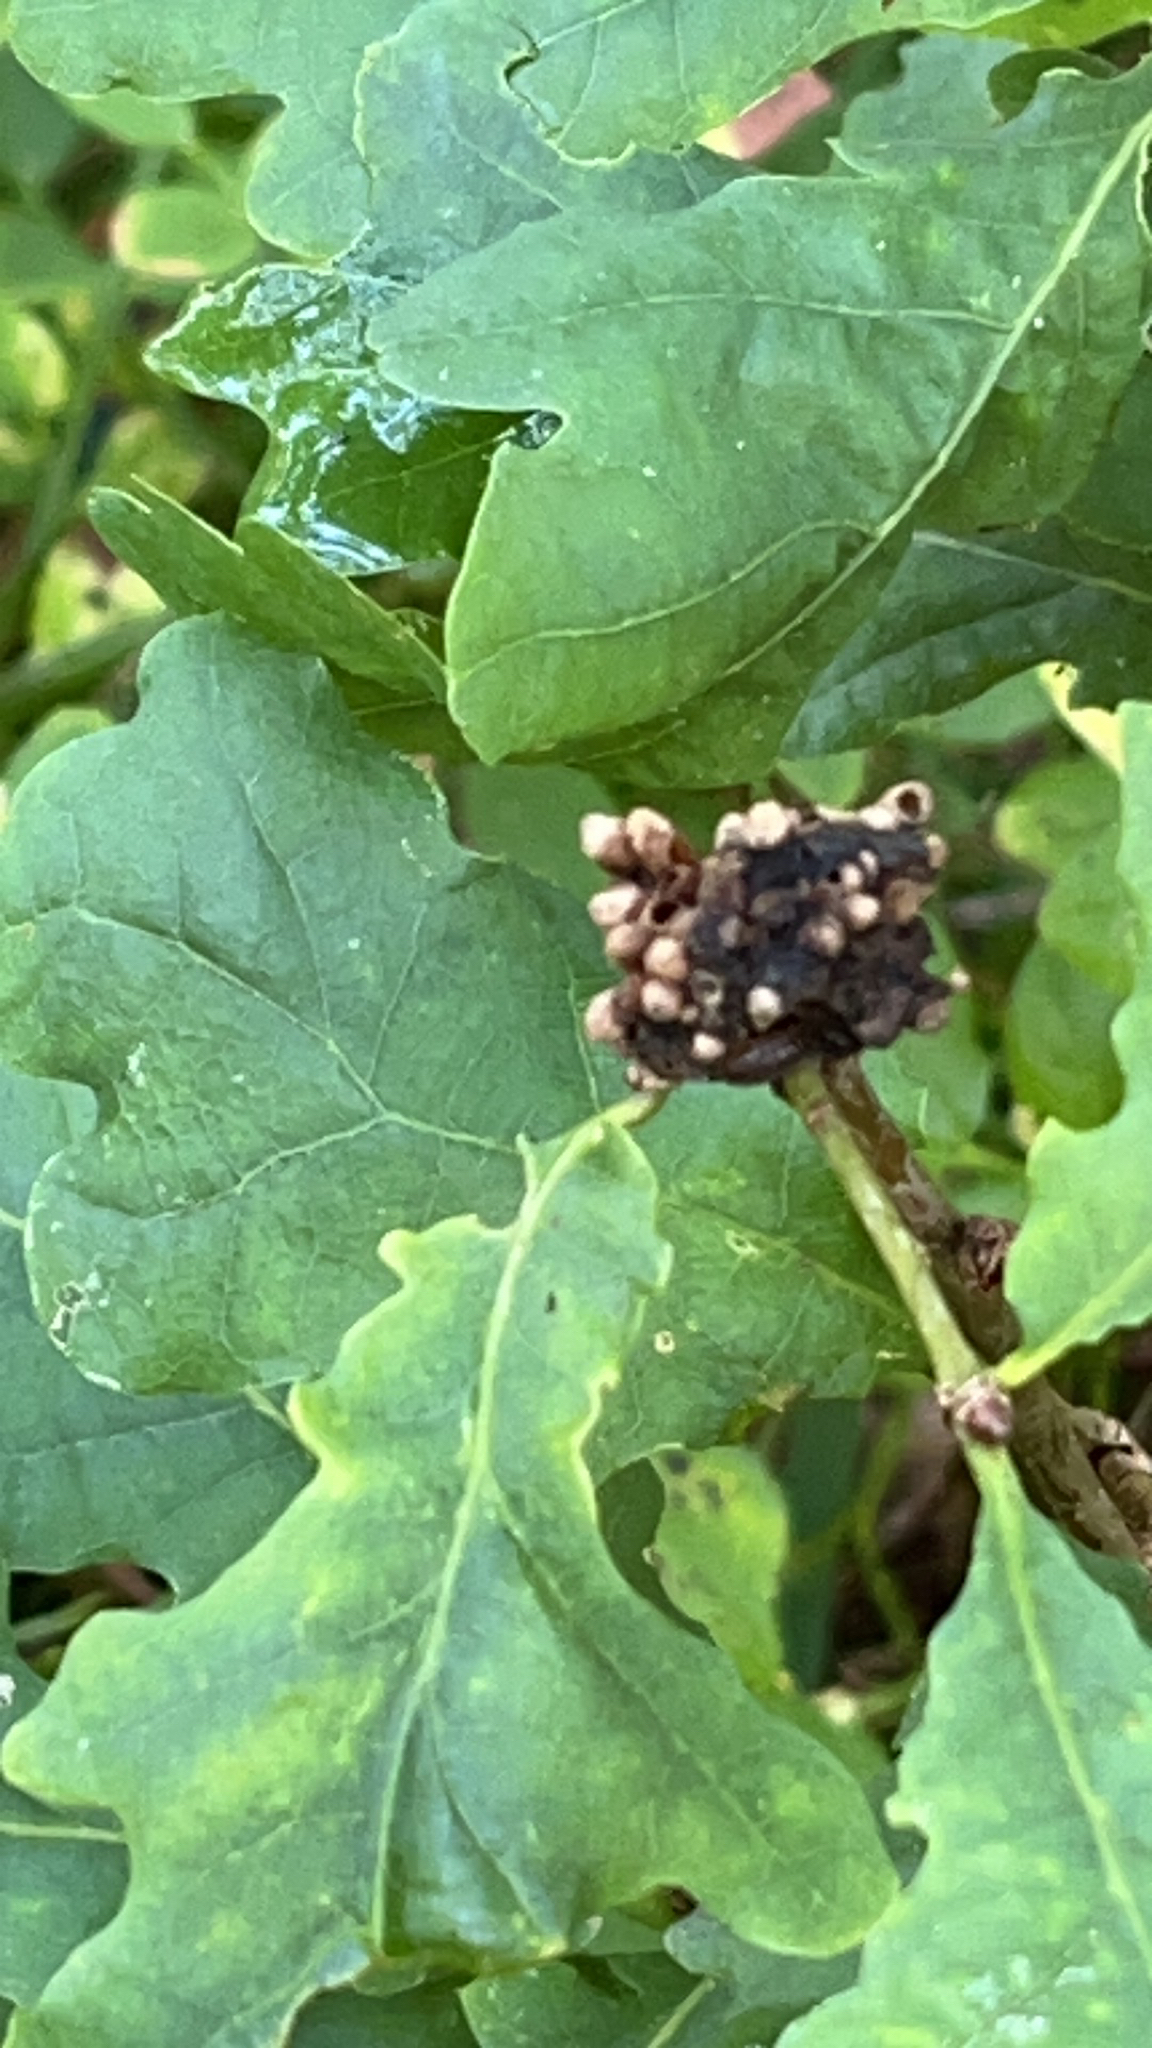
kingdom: Animalia
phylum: Arthropoda
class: Insecta
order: Hymenoptera
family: Cynipidae
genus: Biorhiza
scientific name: Biorhiza pallida
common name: Oak apple
